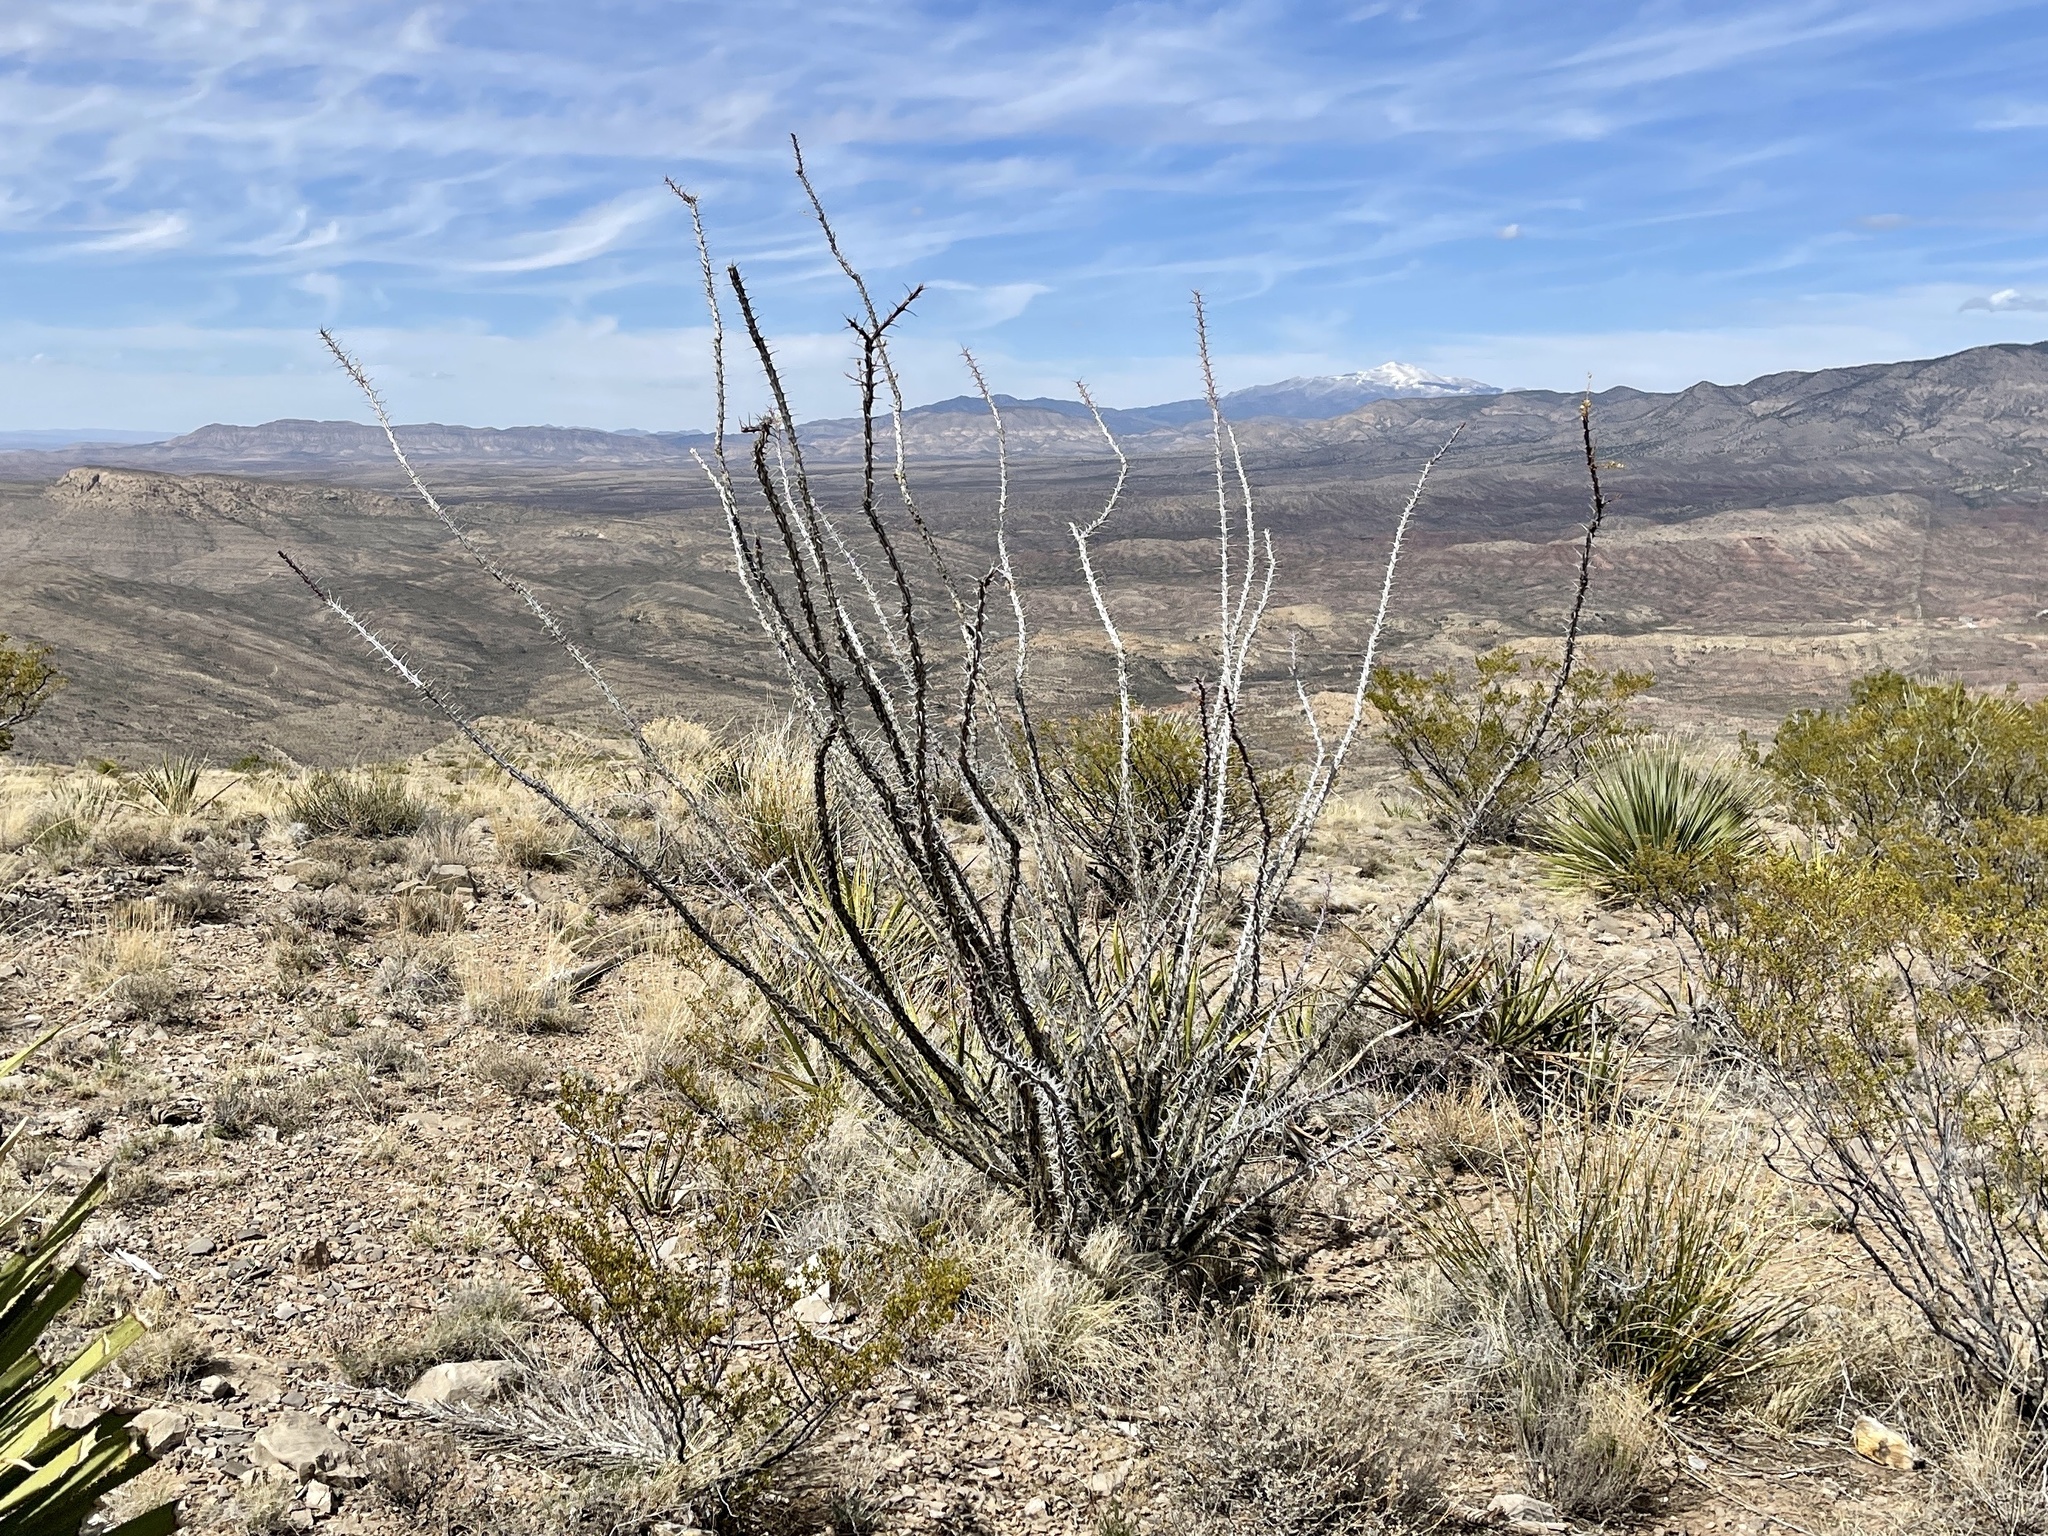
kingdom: Plantae
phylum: Tracheophyta
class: Magnoliopsida
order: Ericales
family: Fouquieriaceae
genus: Fouquieria
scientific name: Fouquieria splendens
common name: Vine-cactus
